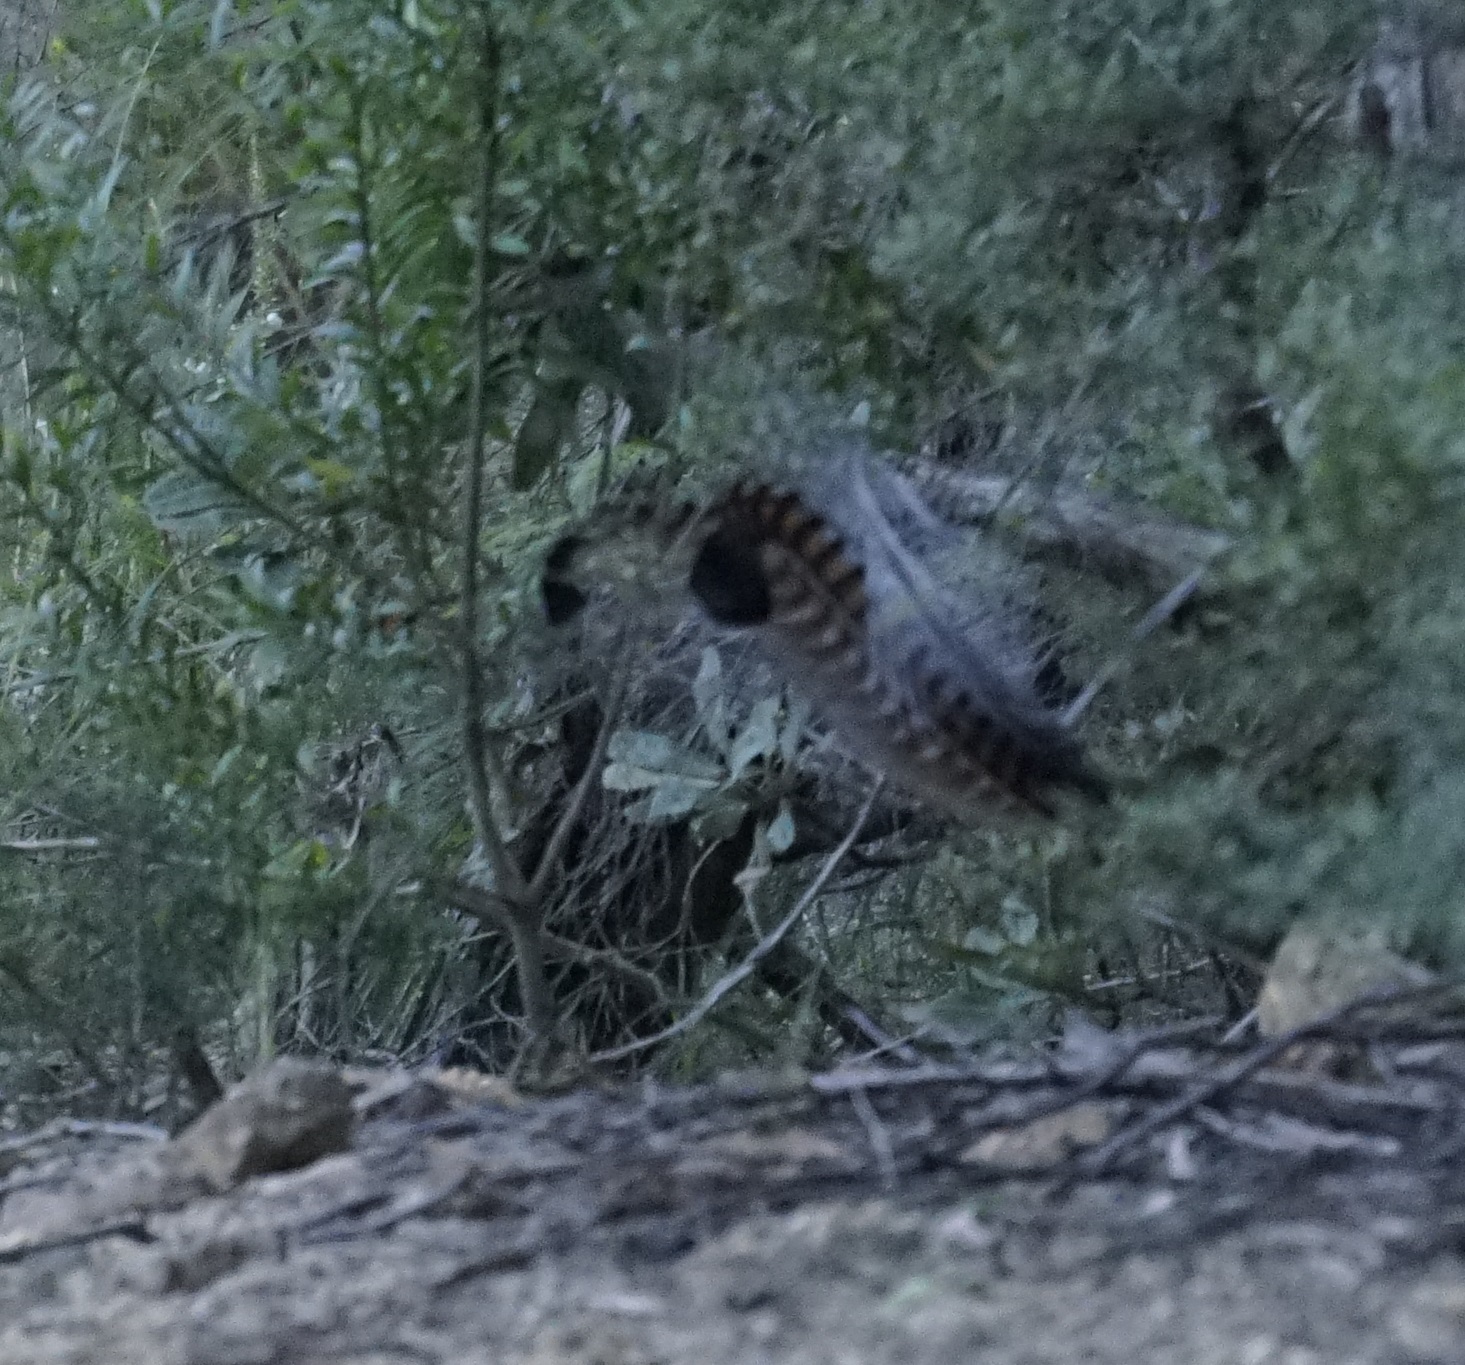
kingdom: Animalia
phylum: Chordata
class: Aves
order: Passeriformes
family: Menuridae
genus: Menura
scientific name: Menura novaehollandiae
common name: Superb lyrebird
